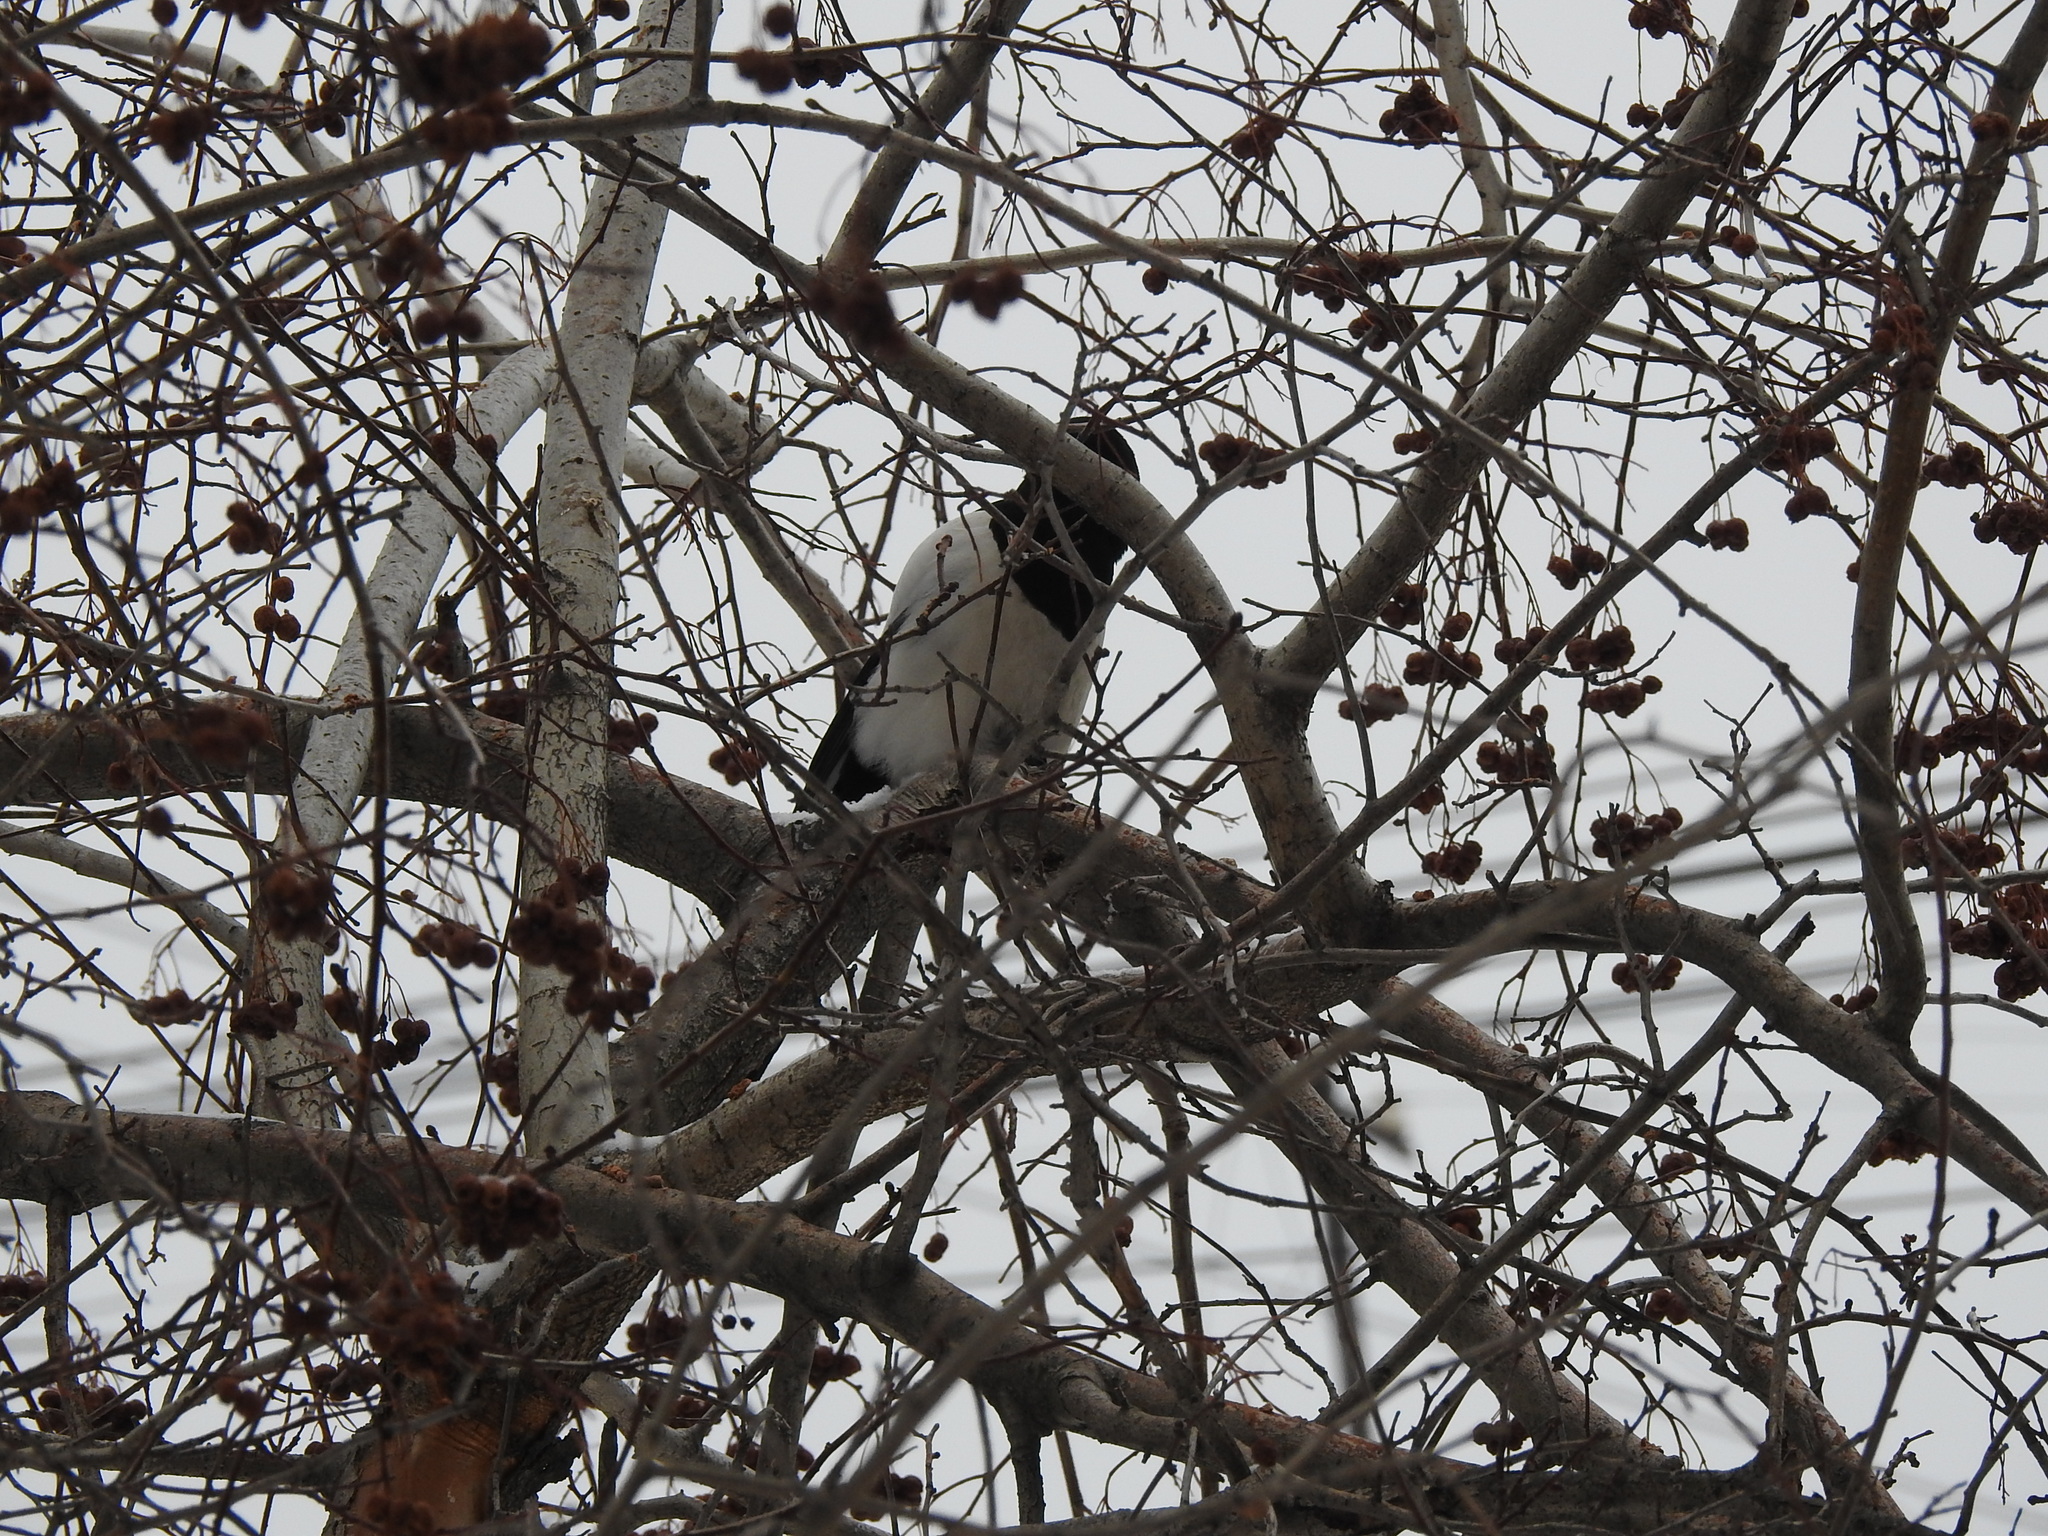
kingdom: Animalia
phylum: Chordata
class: Aves
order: Passeriformes
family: Corvidae
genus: Pica
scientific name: Pica pica
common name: Eurasian magpie
